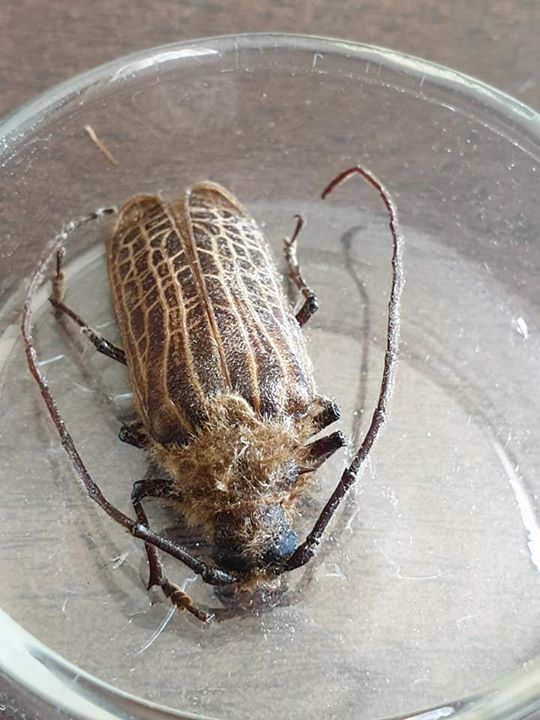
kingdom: Animalia
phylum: Arthropoda
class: Insecta
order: Coleoptera
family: Cerambycidae
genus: Prionoplus
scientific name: Prionoplus reticularis
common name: Huhu beetle
